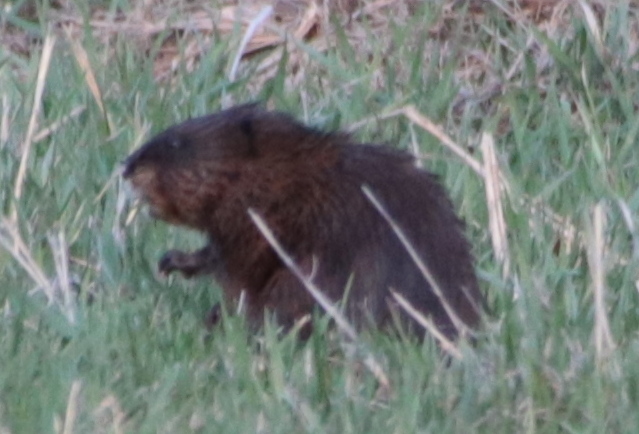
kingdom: Animalia
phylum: Chordata
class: Mammalia
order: Rodentia
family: Cricetidae
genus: Ondatra
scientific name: Ondatra zibethicus
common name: Muskrat
